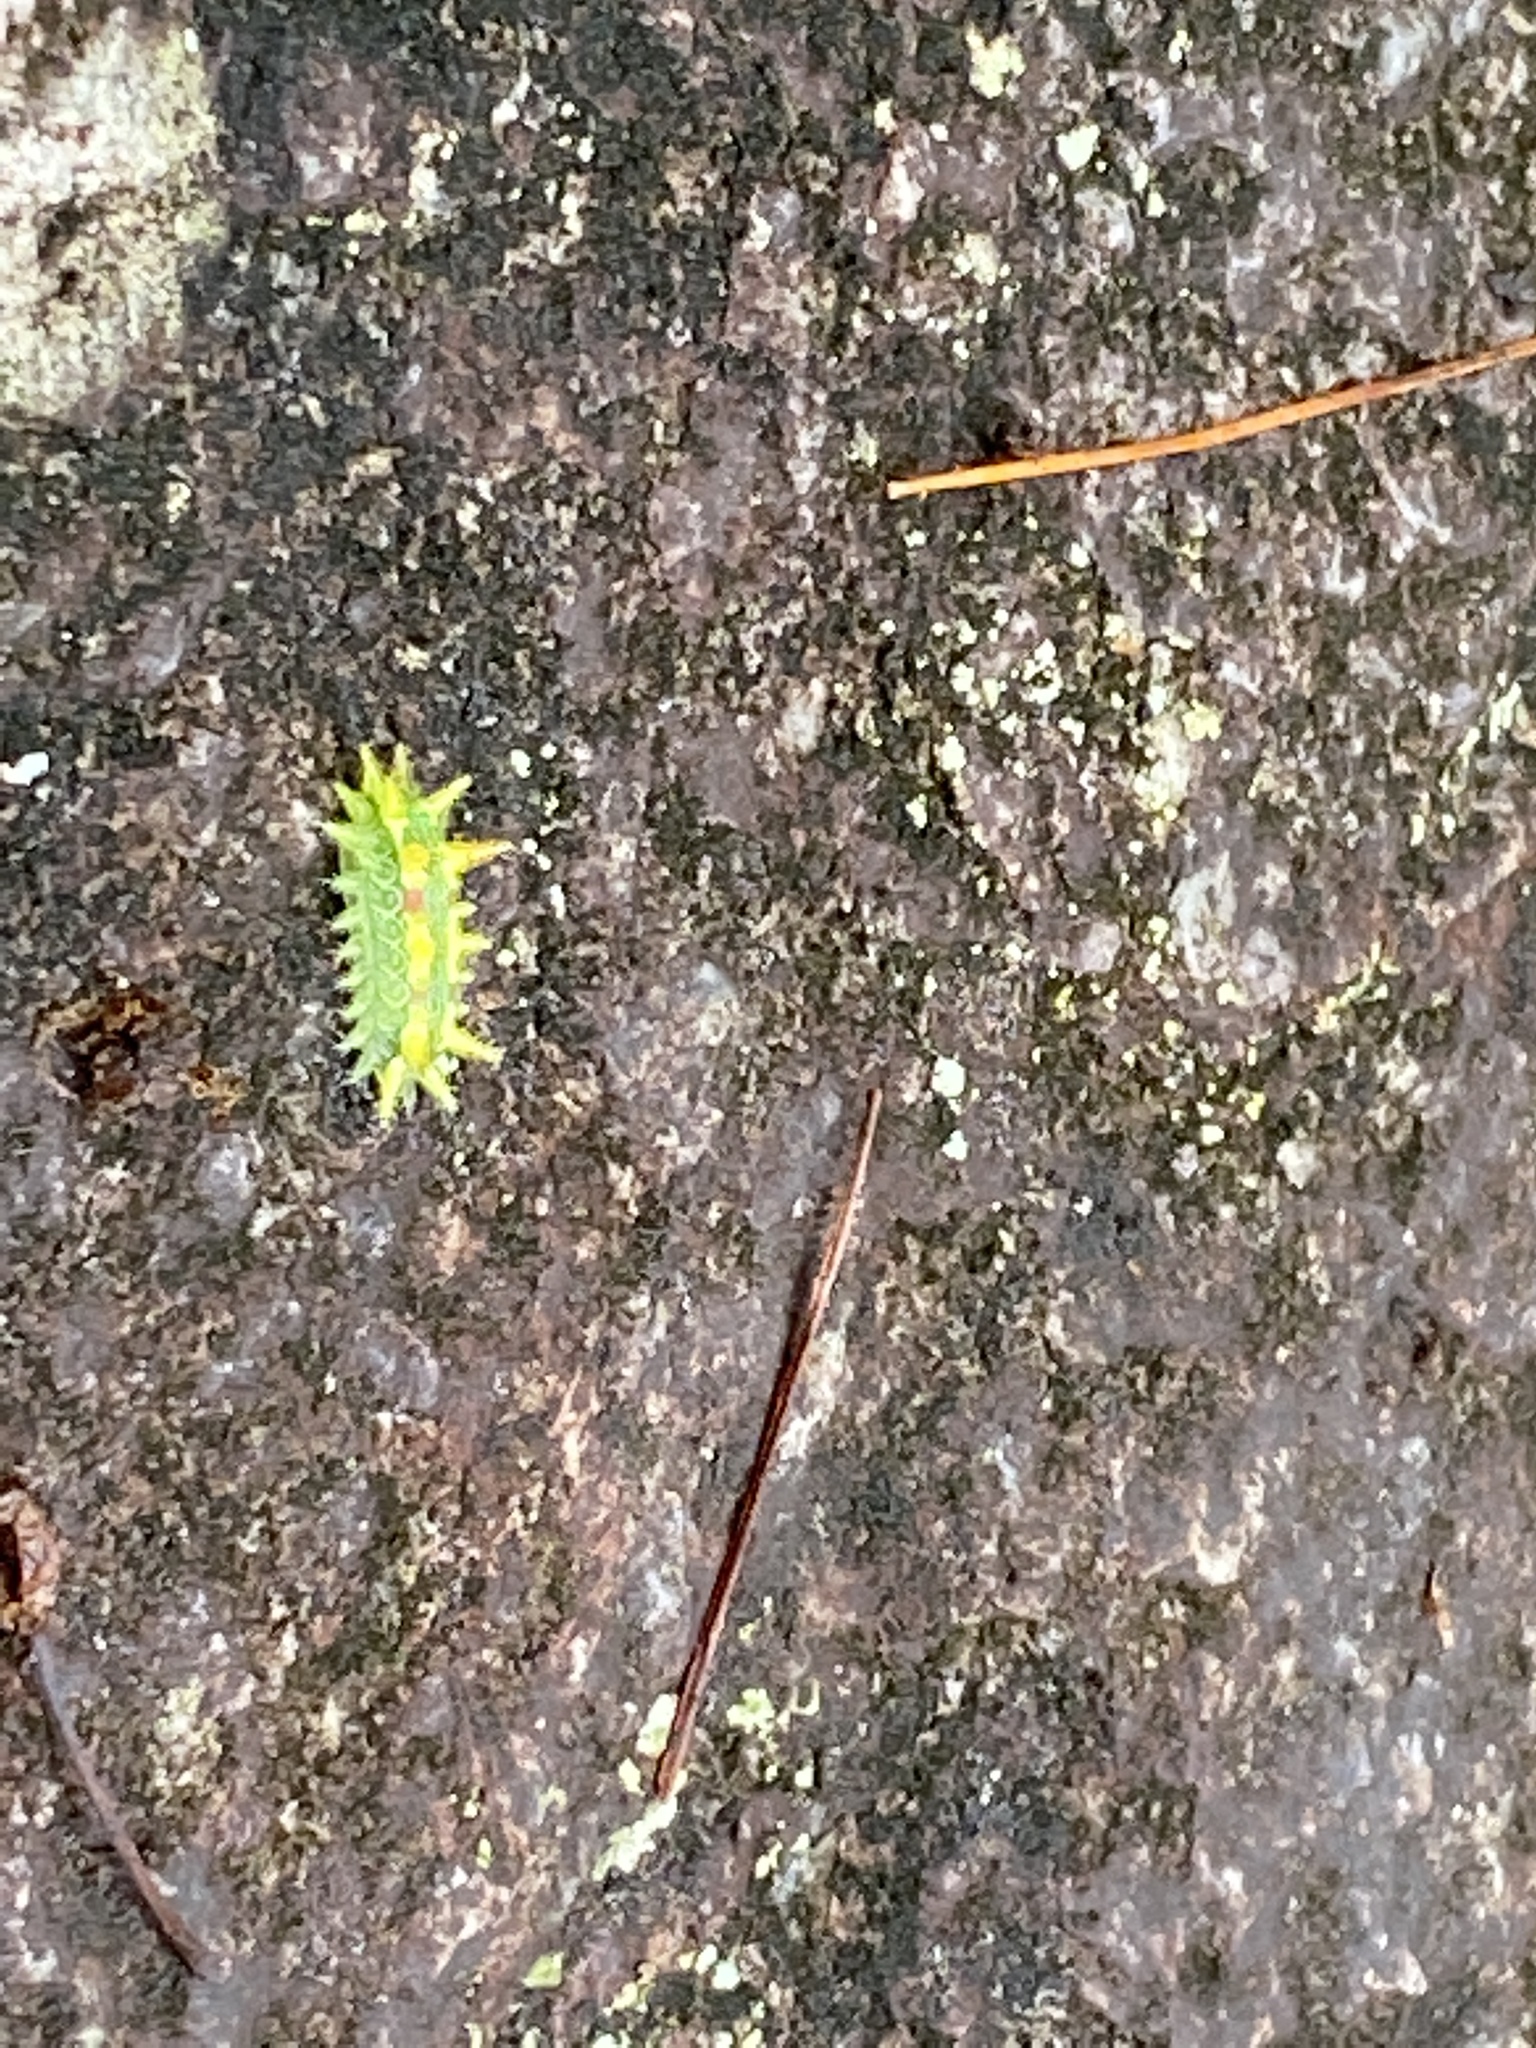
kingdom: Animalia
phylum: Arthropoda
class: Insecta
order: Lepidoptera
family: Limacodidae
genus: Euclea
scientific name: Euclea delphinii
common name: Spiny oak-slug moth
